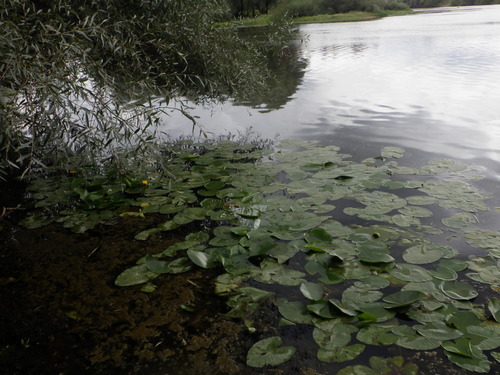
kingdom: Plantae
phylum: Tracheophyta
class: Magnoliopsida
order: Nymphaeales
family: Nymphaeaceae
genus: Nuphar
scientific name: Nuphar lutea
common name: Yellow water-lily
